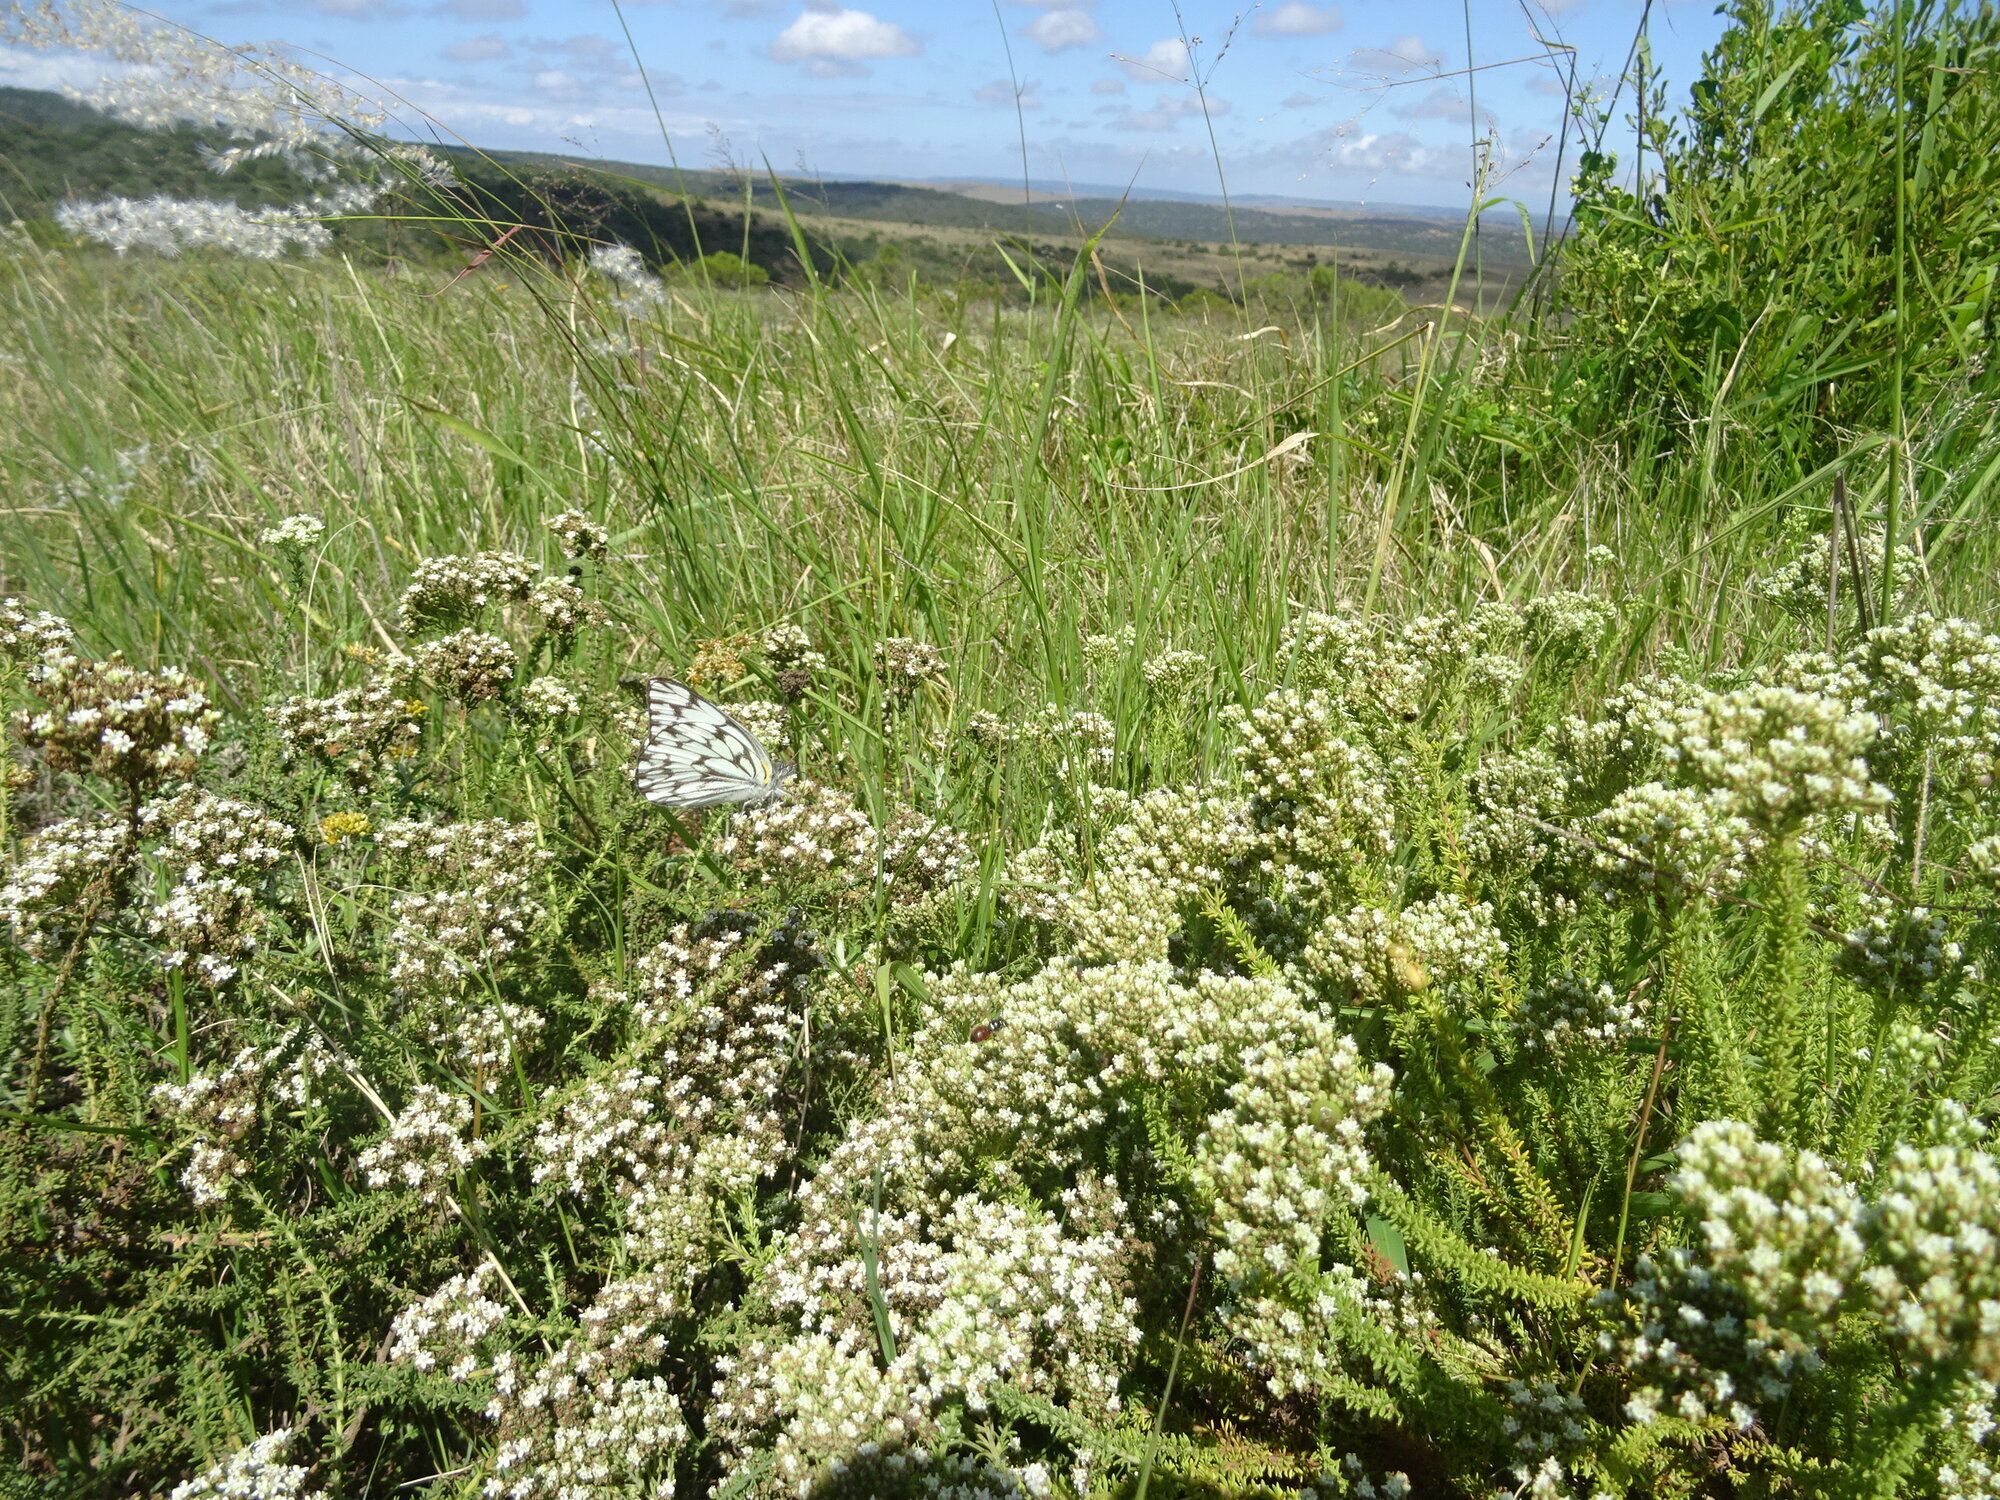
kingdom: Animalia
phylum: Arthropoda
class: Insecta
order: Lepidoptera
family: Pieridae
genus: Belenois
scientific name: Belenois gidica
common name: Pointed caper white
